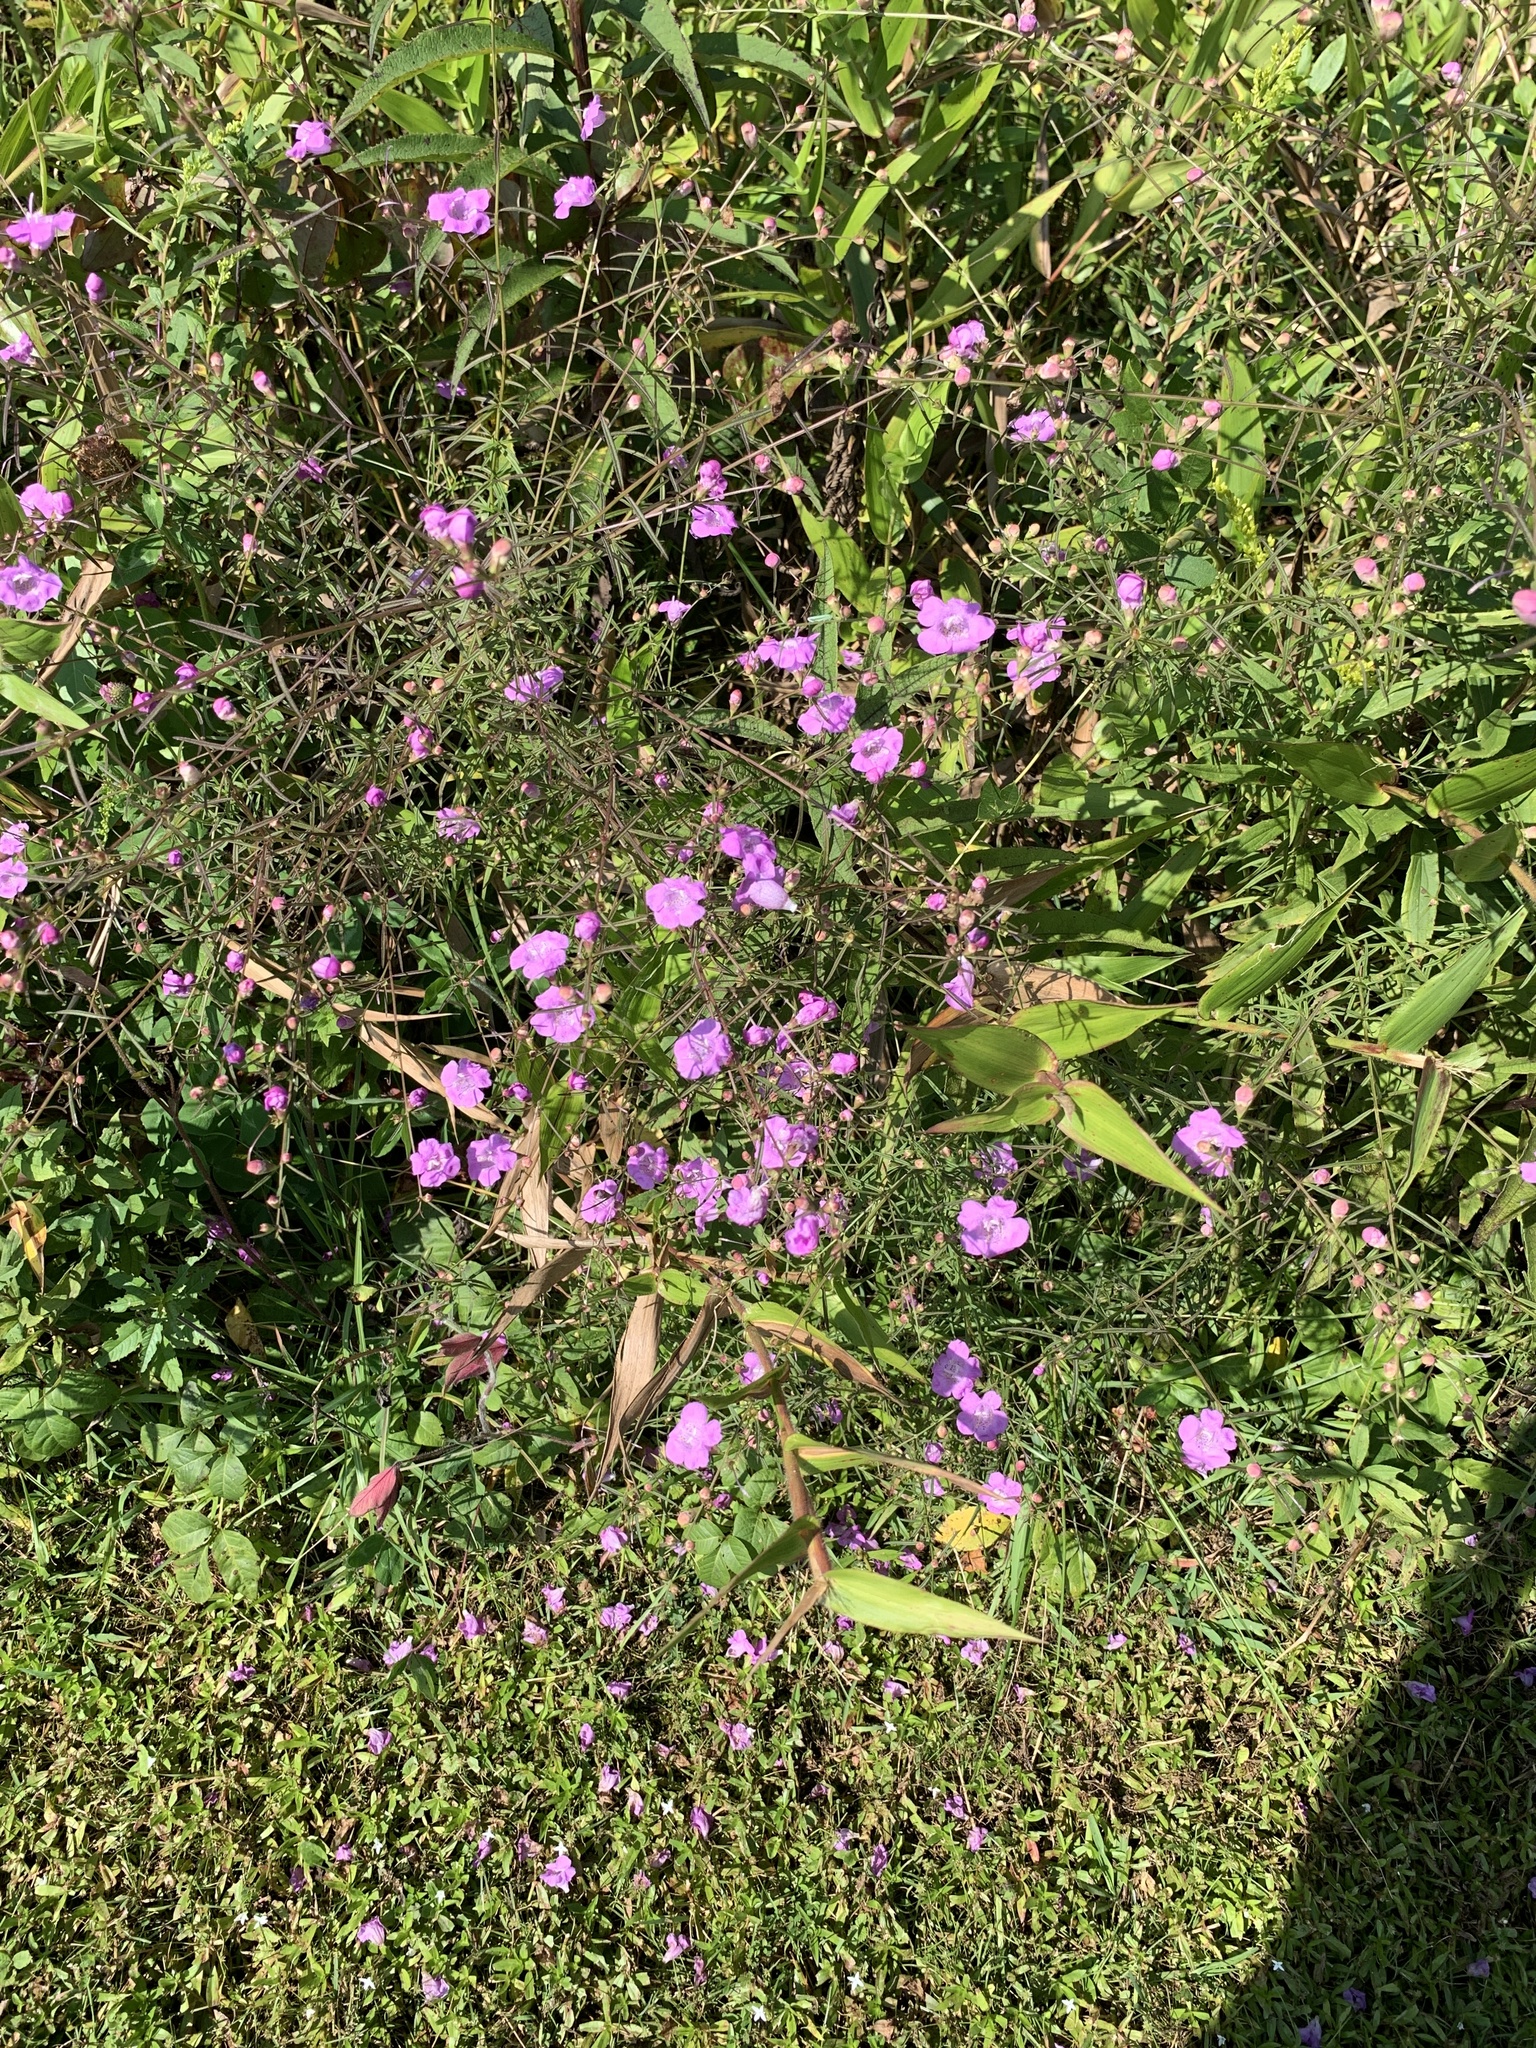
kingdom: Plantae
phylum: Tracheophyta
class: Magnoliopsida
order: Lamiales
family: Orobanchaceae
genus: Agalinis
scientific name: Agalinis tenuifolia
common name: Slender agalinis
